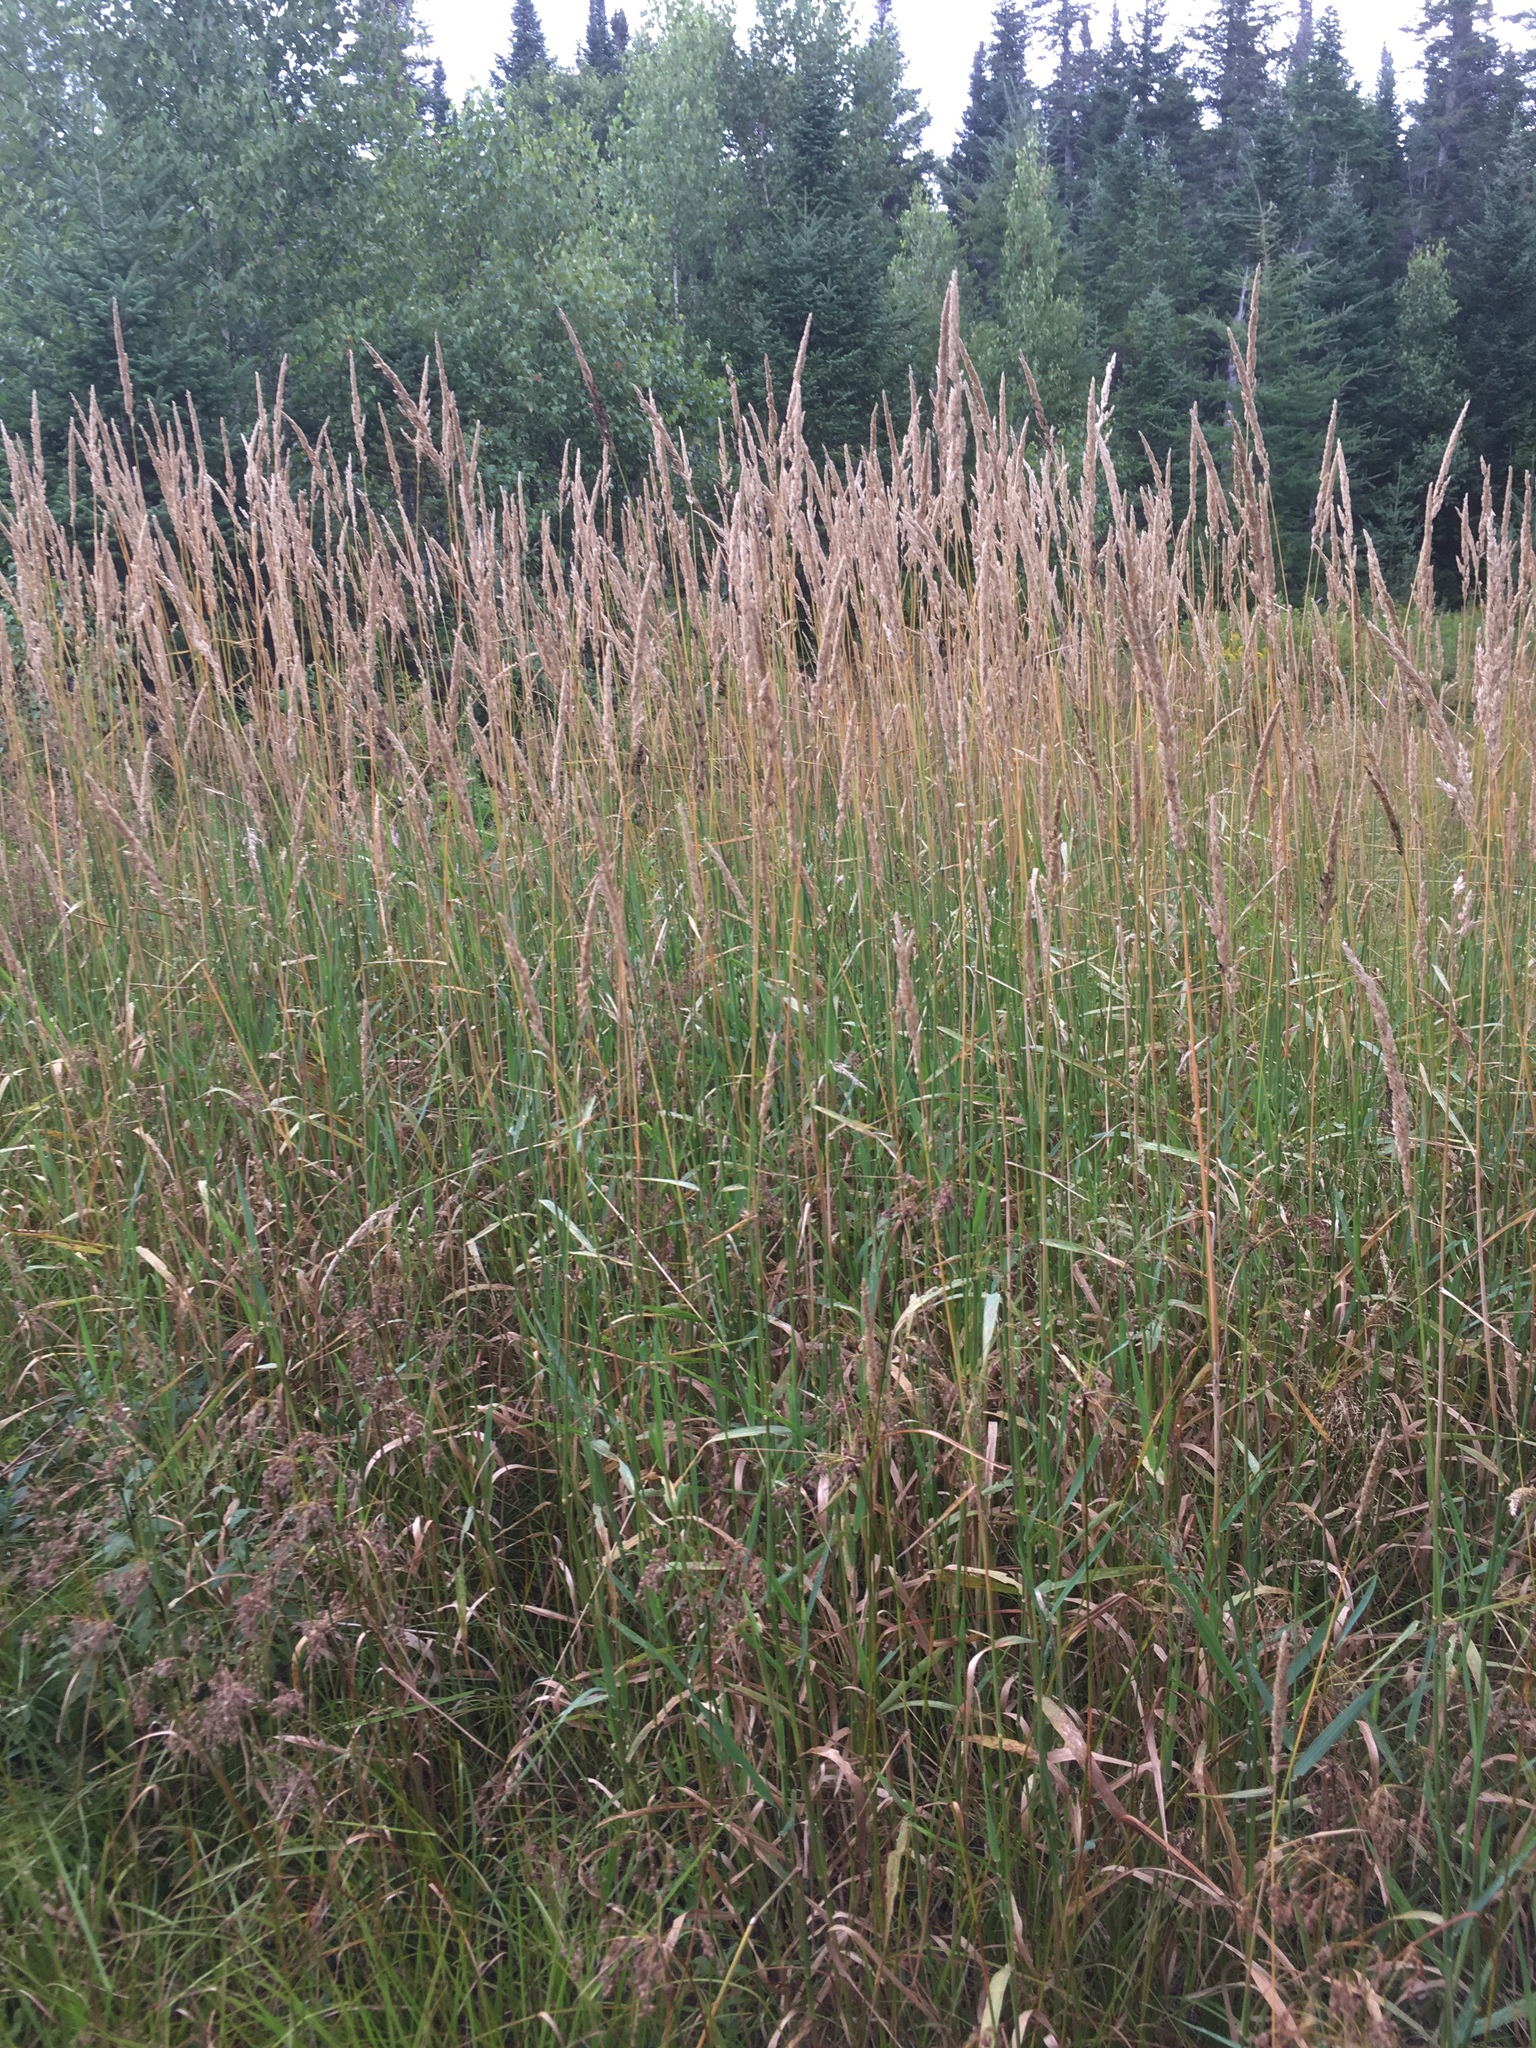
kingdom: Plantae
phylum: Tracheophyta
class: Liliopsida
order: Poales
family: Poaceae
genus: Phalaris
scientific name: Phalaris arundinacea
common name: Reed canary-grass
